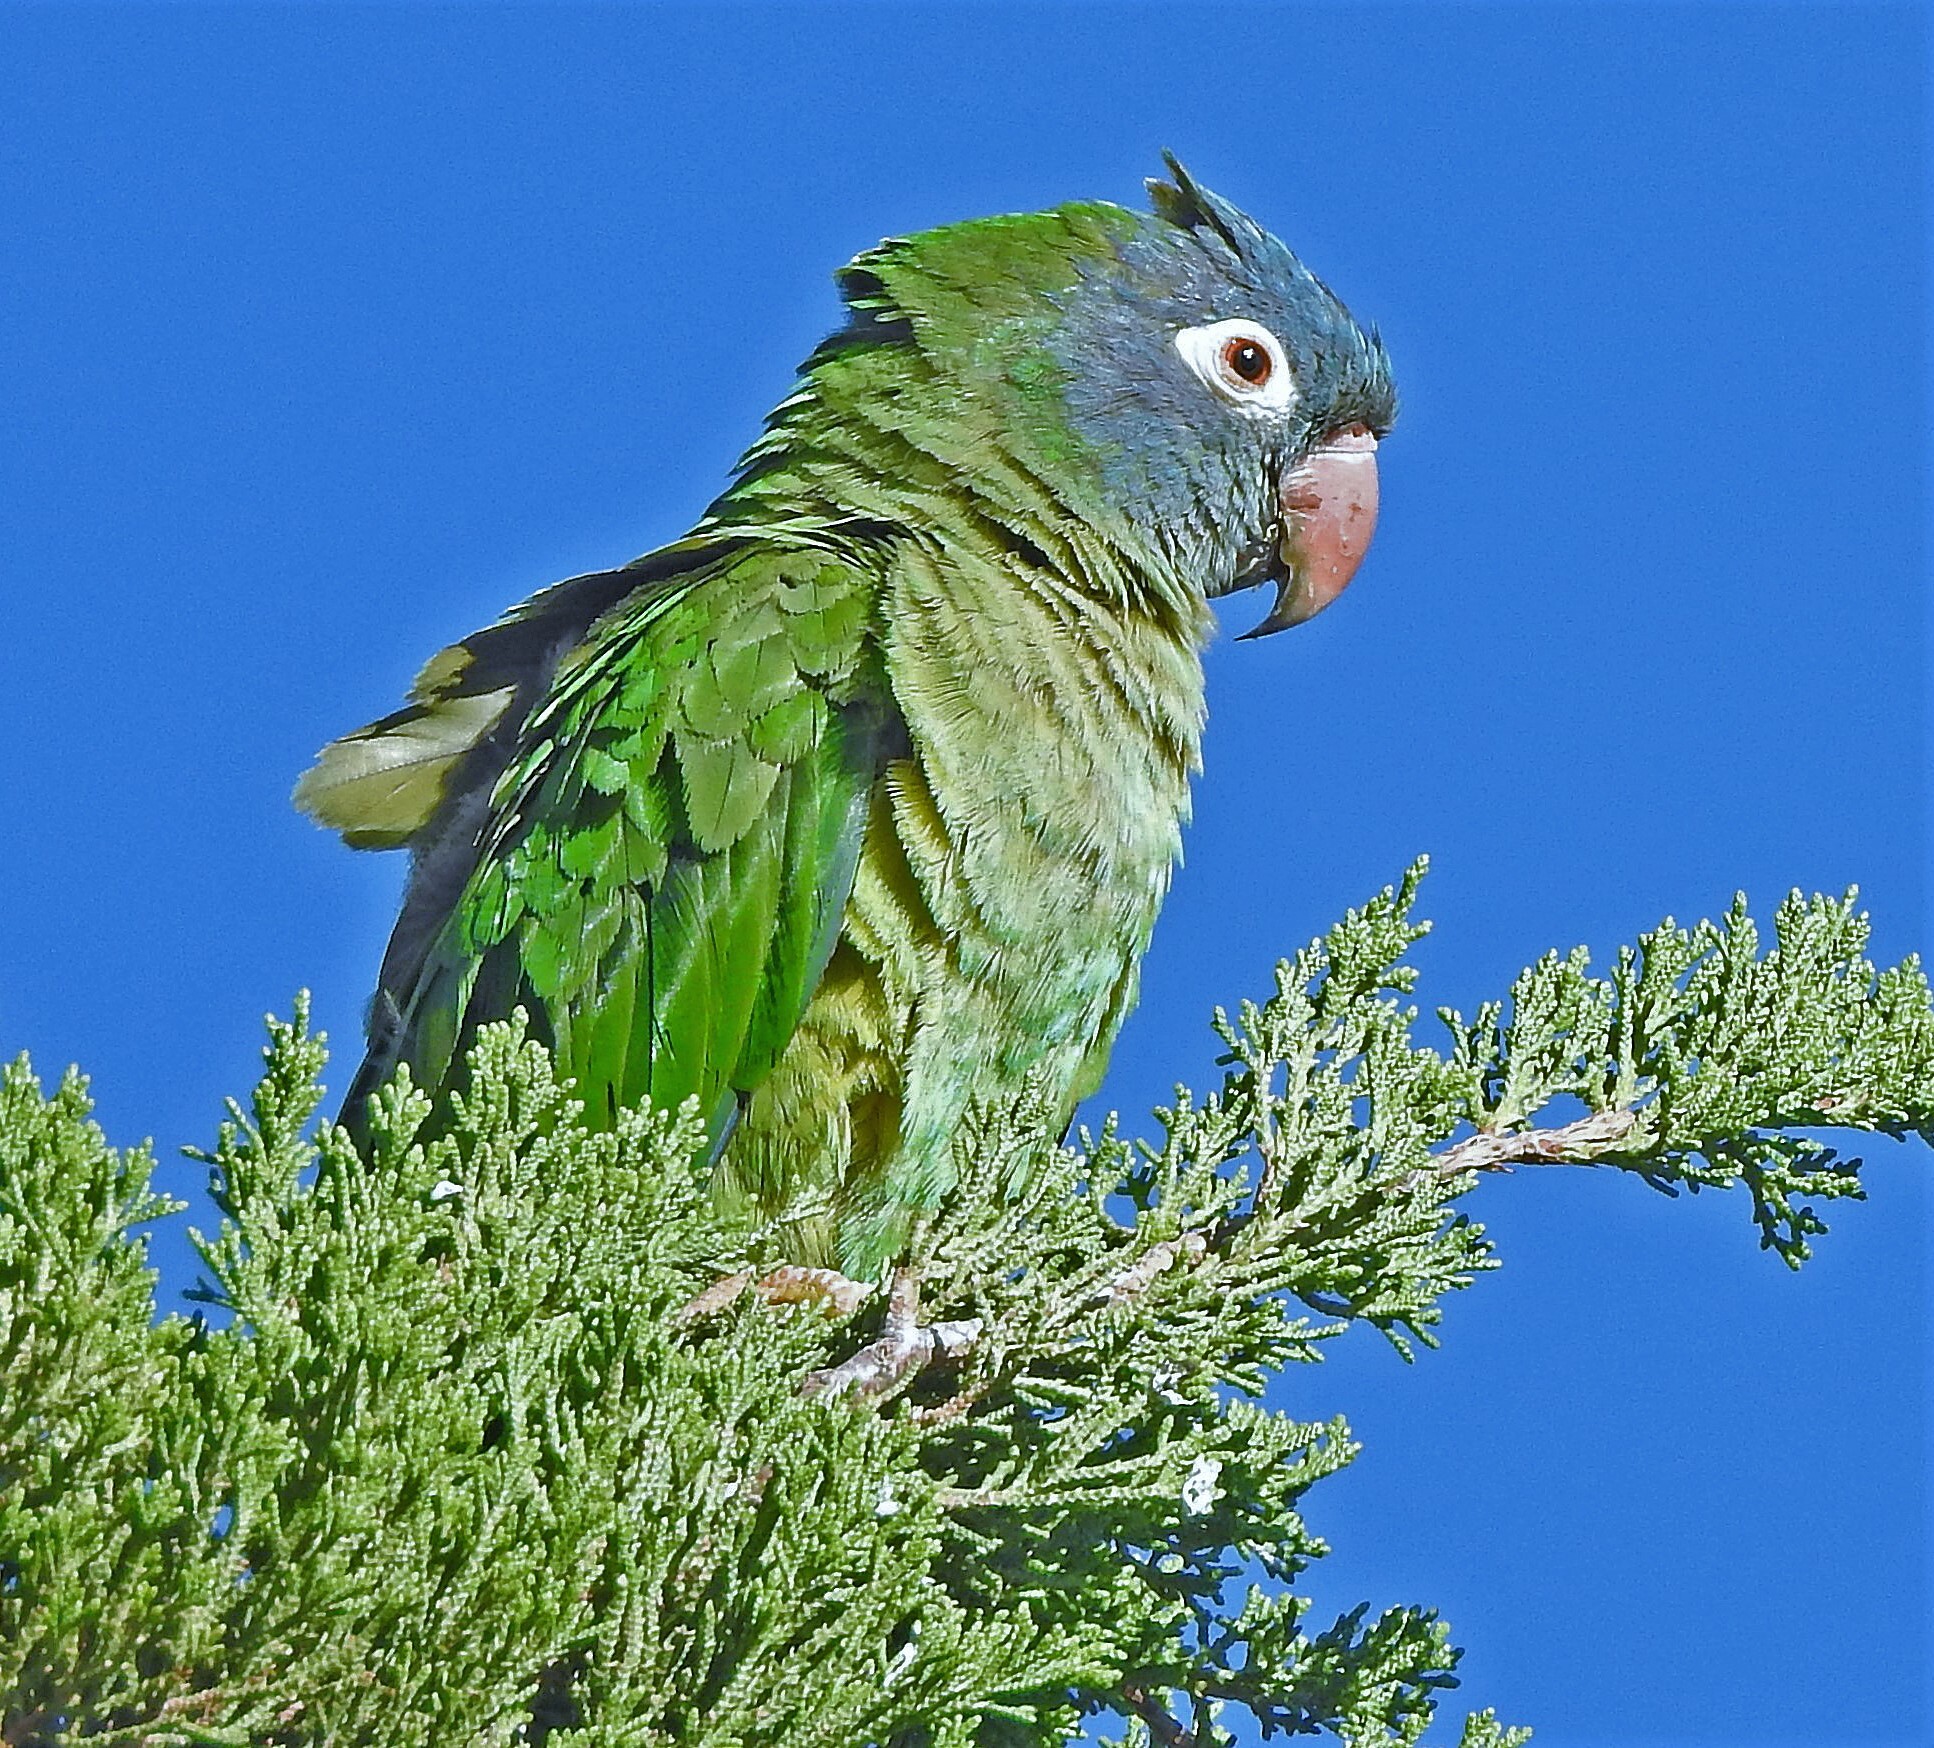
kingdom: Animalia
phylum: Chordata
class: Aves
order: Psittaciformes
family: Psittacidae
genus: Aratinga
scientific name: Aratinga acuticaudata
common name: Blue-crowned parakeet
